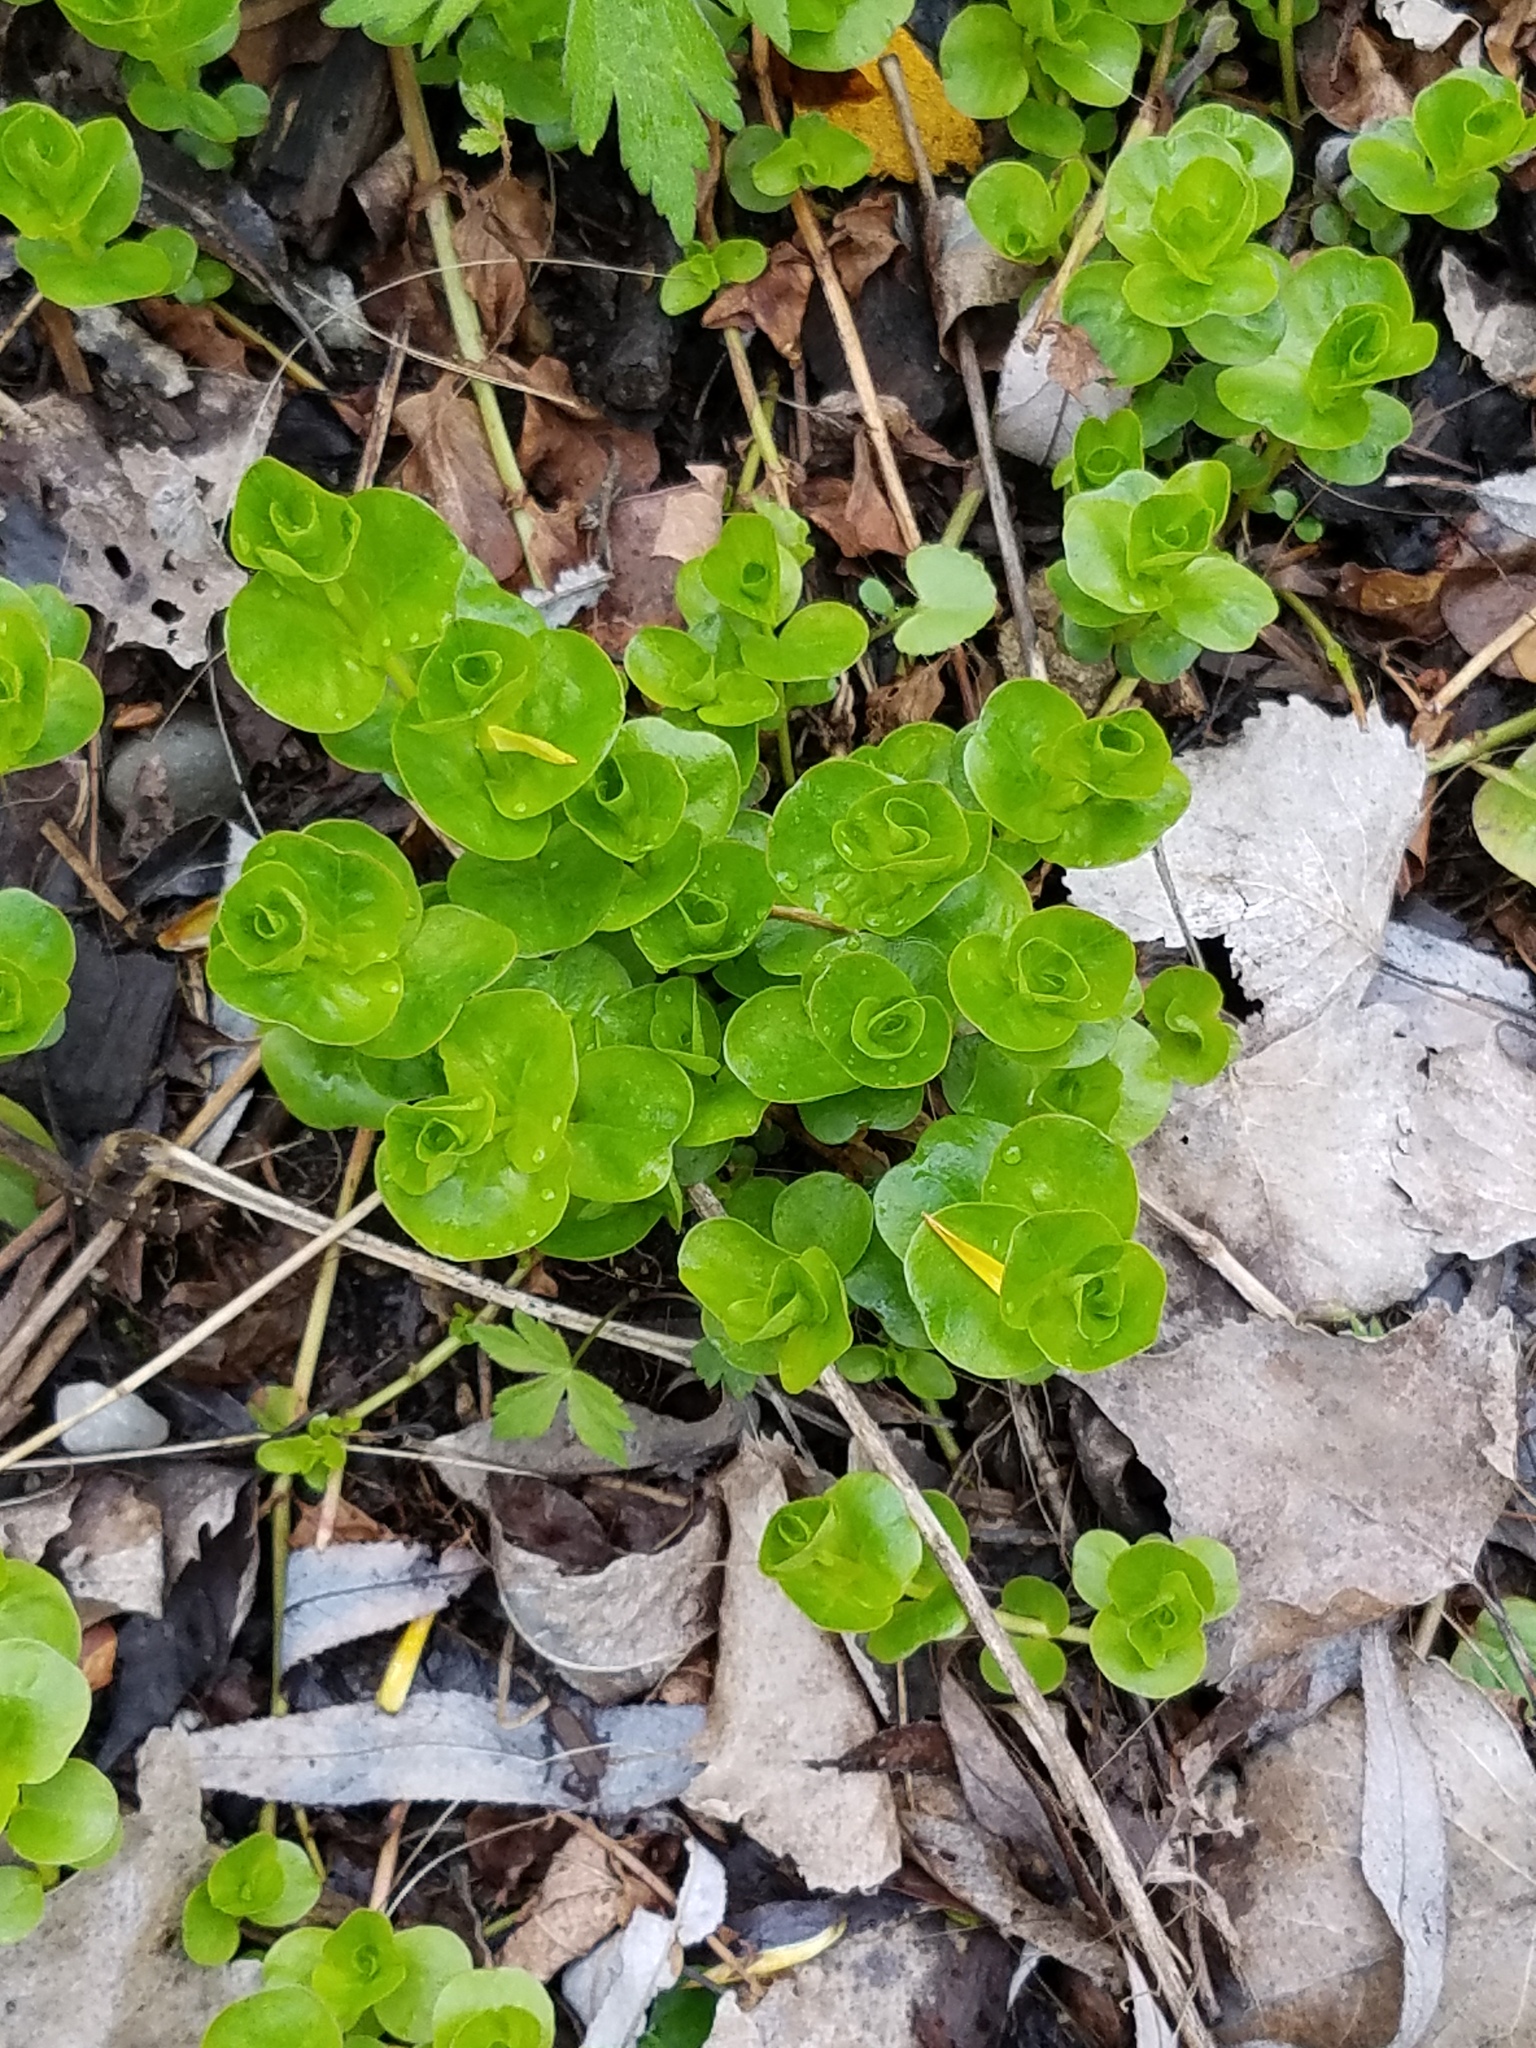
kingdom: Plantae
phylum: Tracheophyta
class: Magnoliopsida
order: Ericales
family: Primulaceae
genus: Lysimachia
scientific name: Lysimachia nummularia
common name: Moneywort
